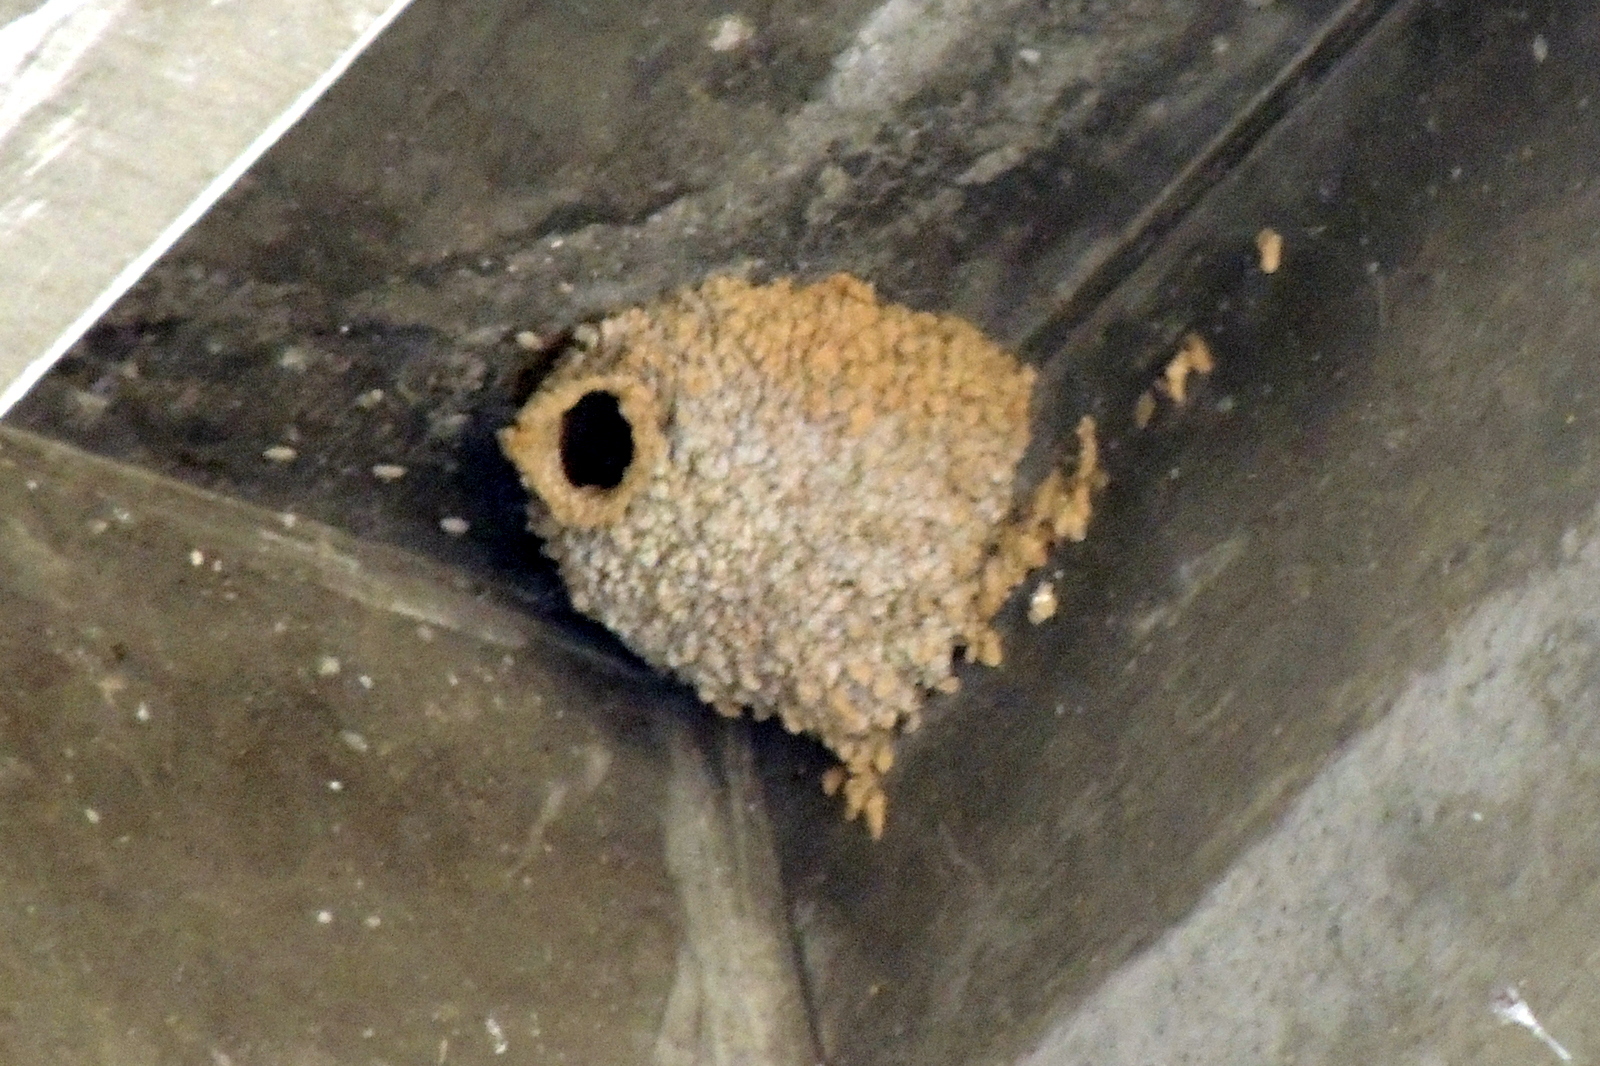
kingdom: Animalia
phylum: Chordata
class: Aves
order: Passeriformes
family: Hirundinidae
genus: Petrochelidon
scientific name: Petrochelidon pyrrhonota
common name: American cliff swallow
